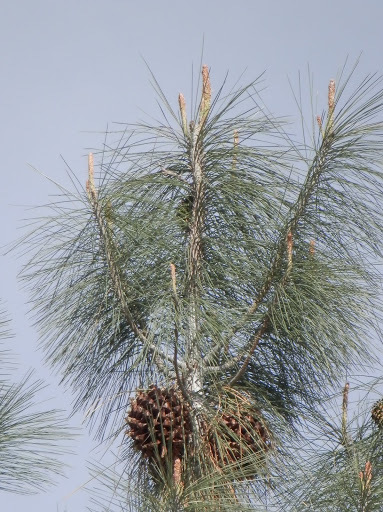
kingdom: Plantae
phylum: Tracheophyta
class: Pinopsida
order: Pinales
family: Pinaceae
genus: Pinus
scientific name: Pinus sabiniana
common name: Bull pine
